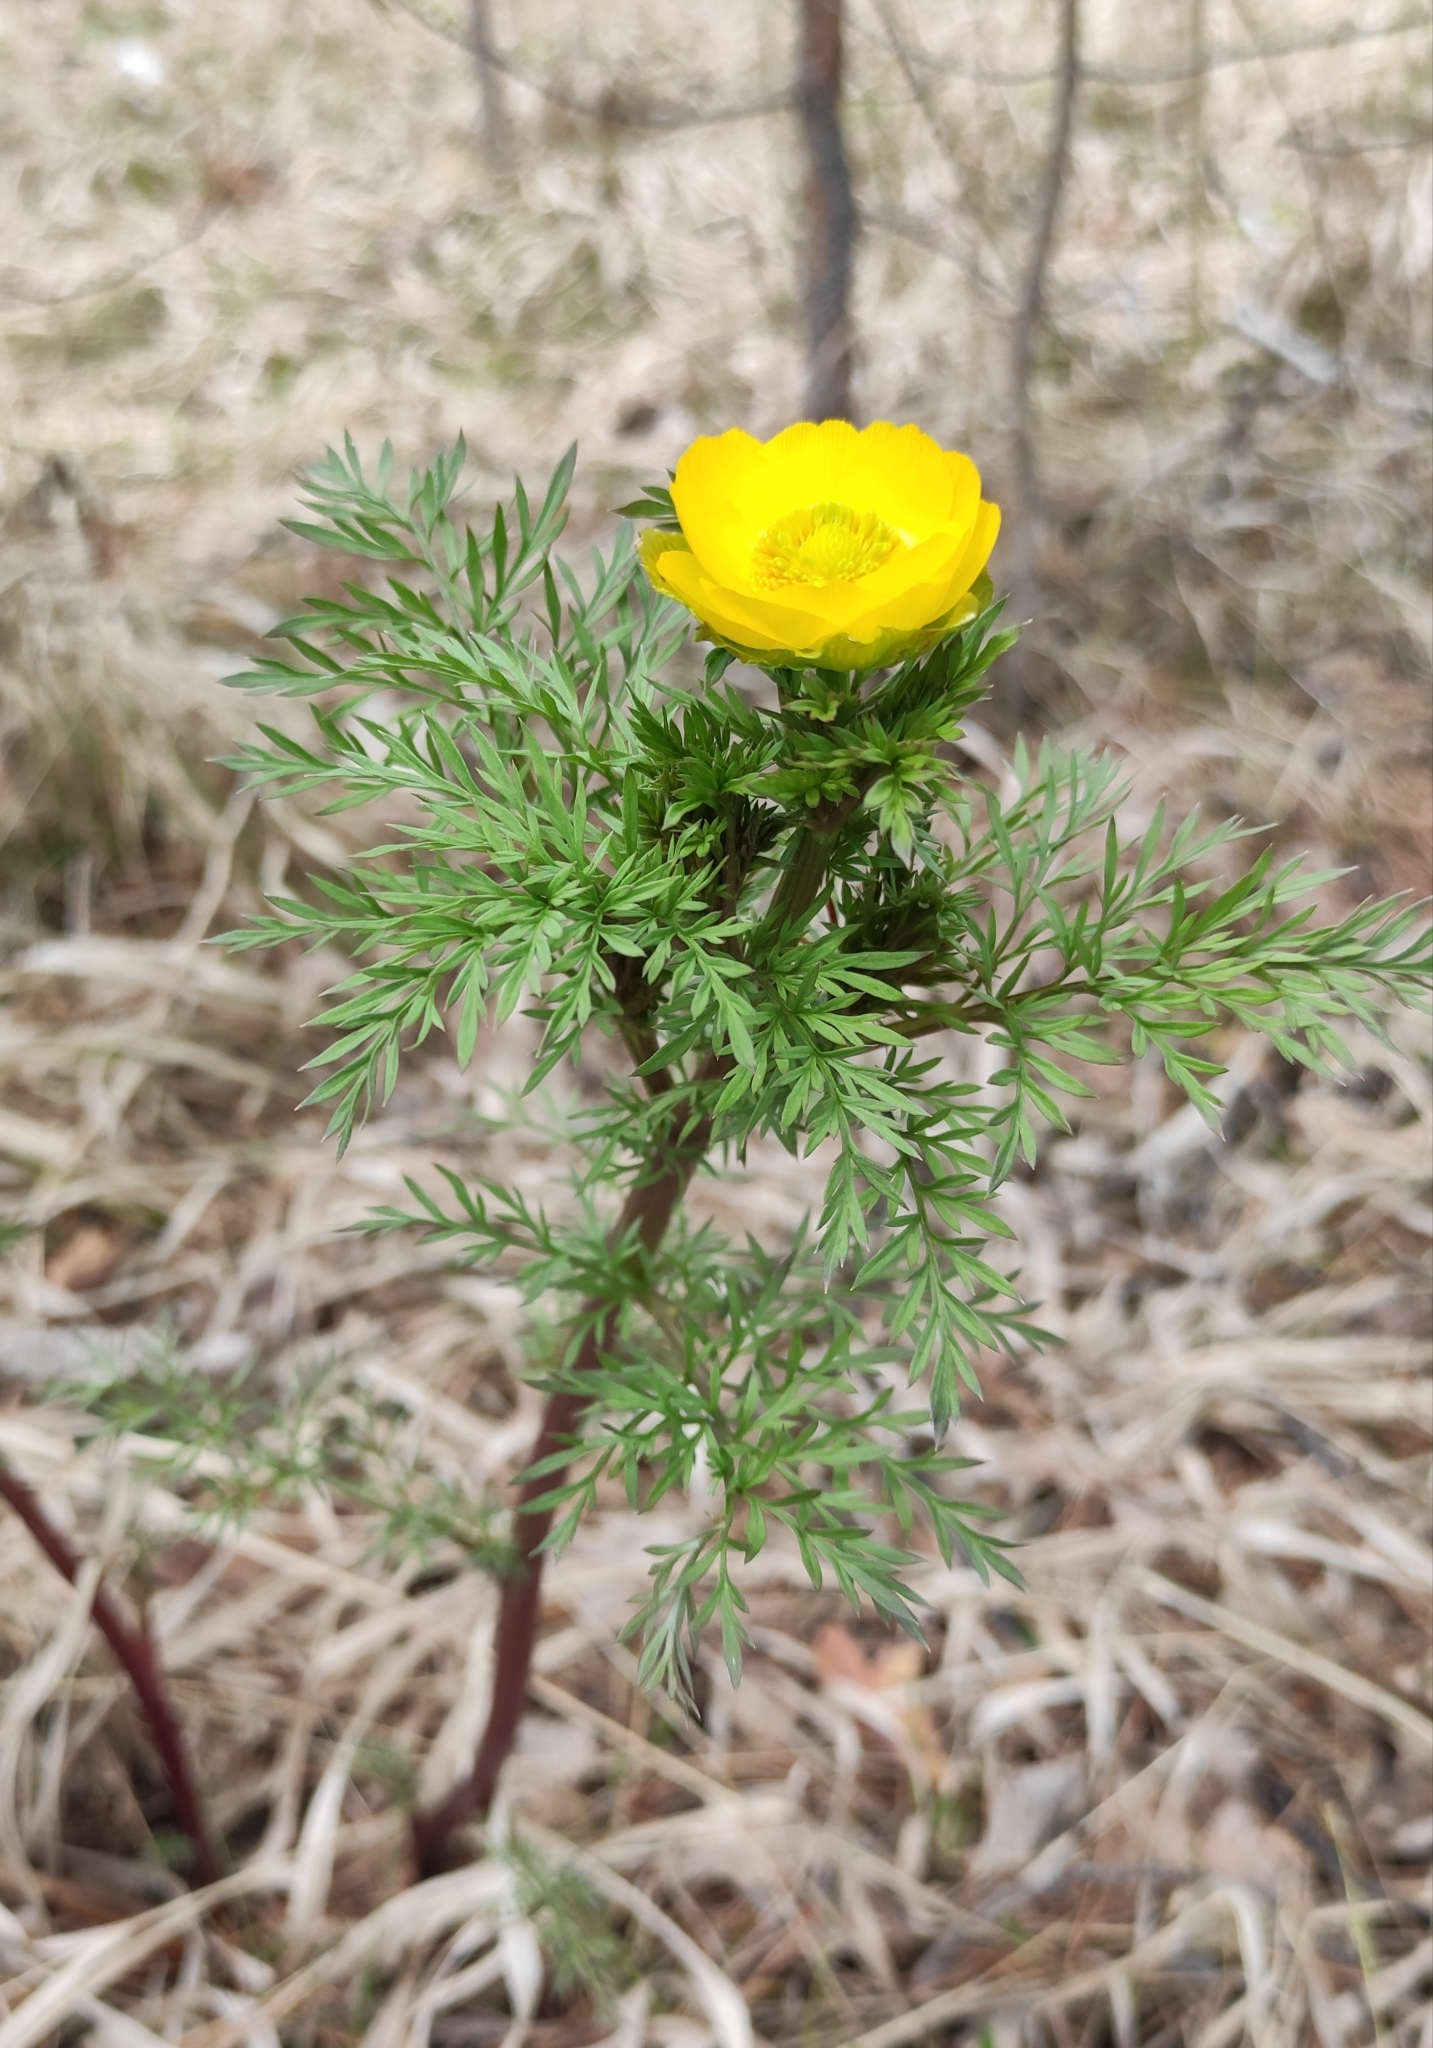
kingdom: Plantae
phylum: Tracheophyta
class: Magnoliopsida
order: Ranunculales
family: Ranunculaceae
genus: Adonis
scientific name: Adonis
